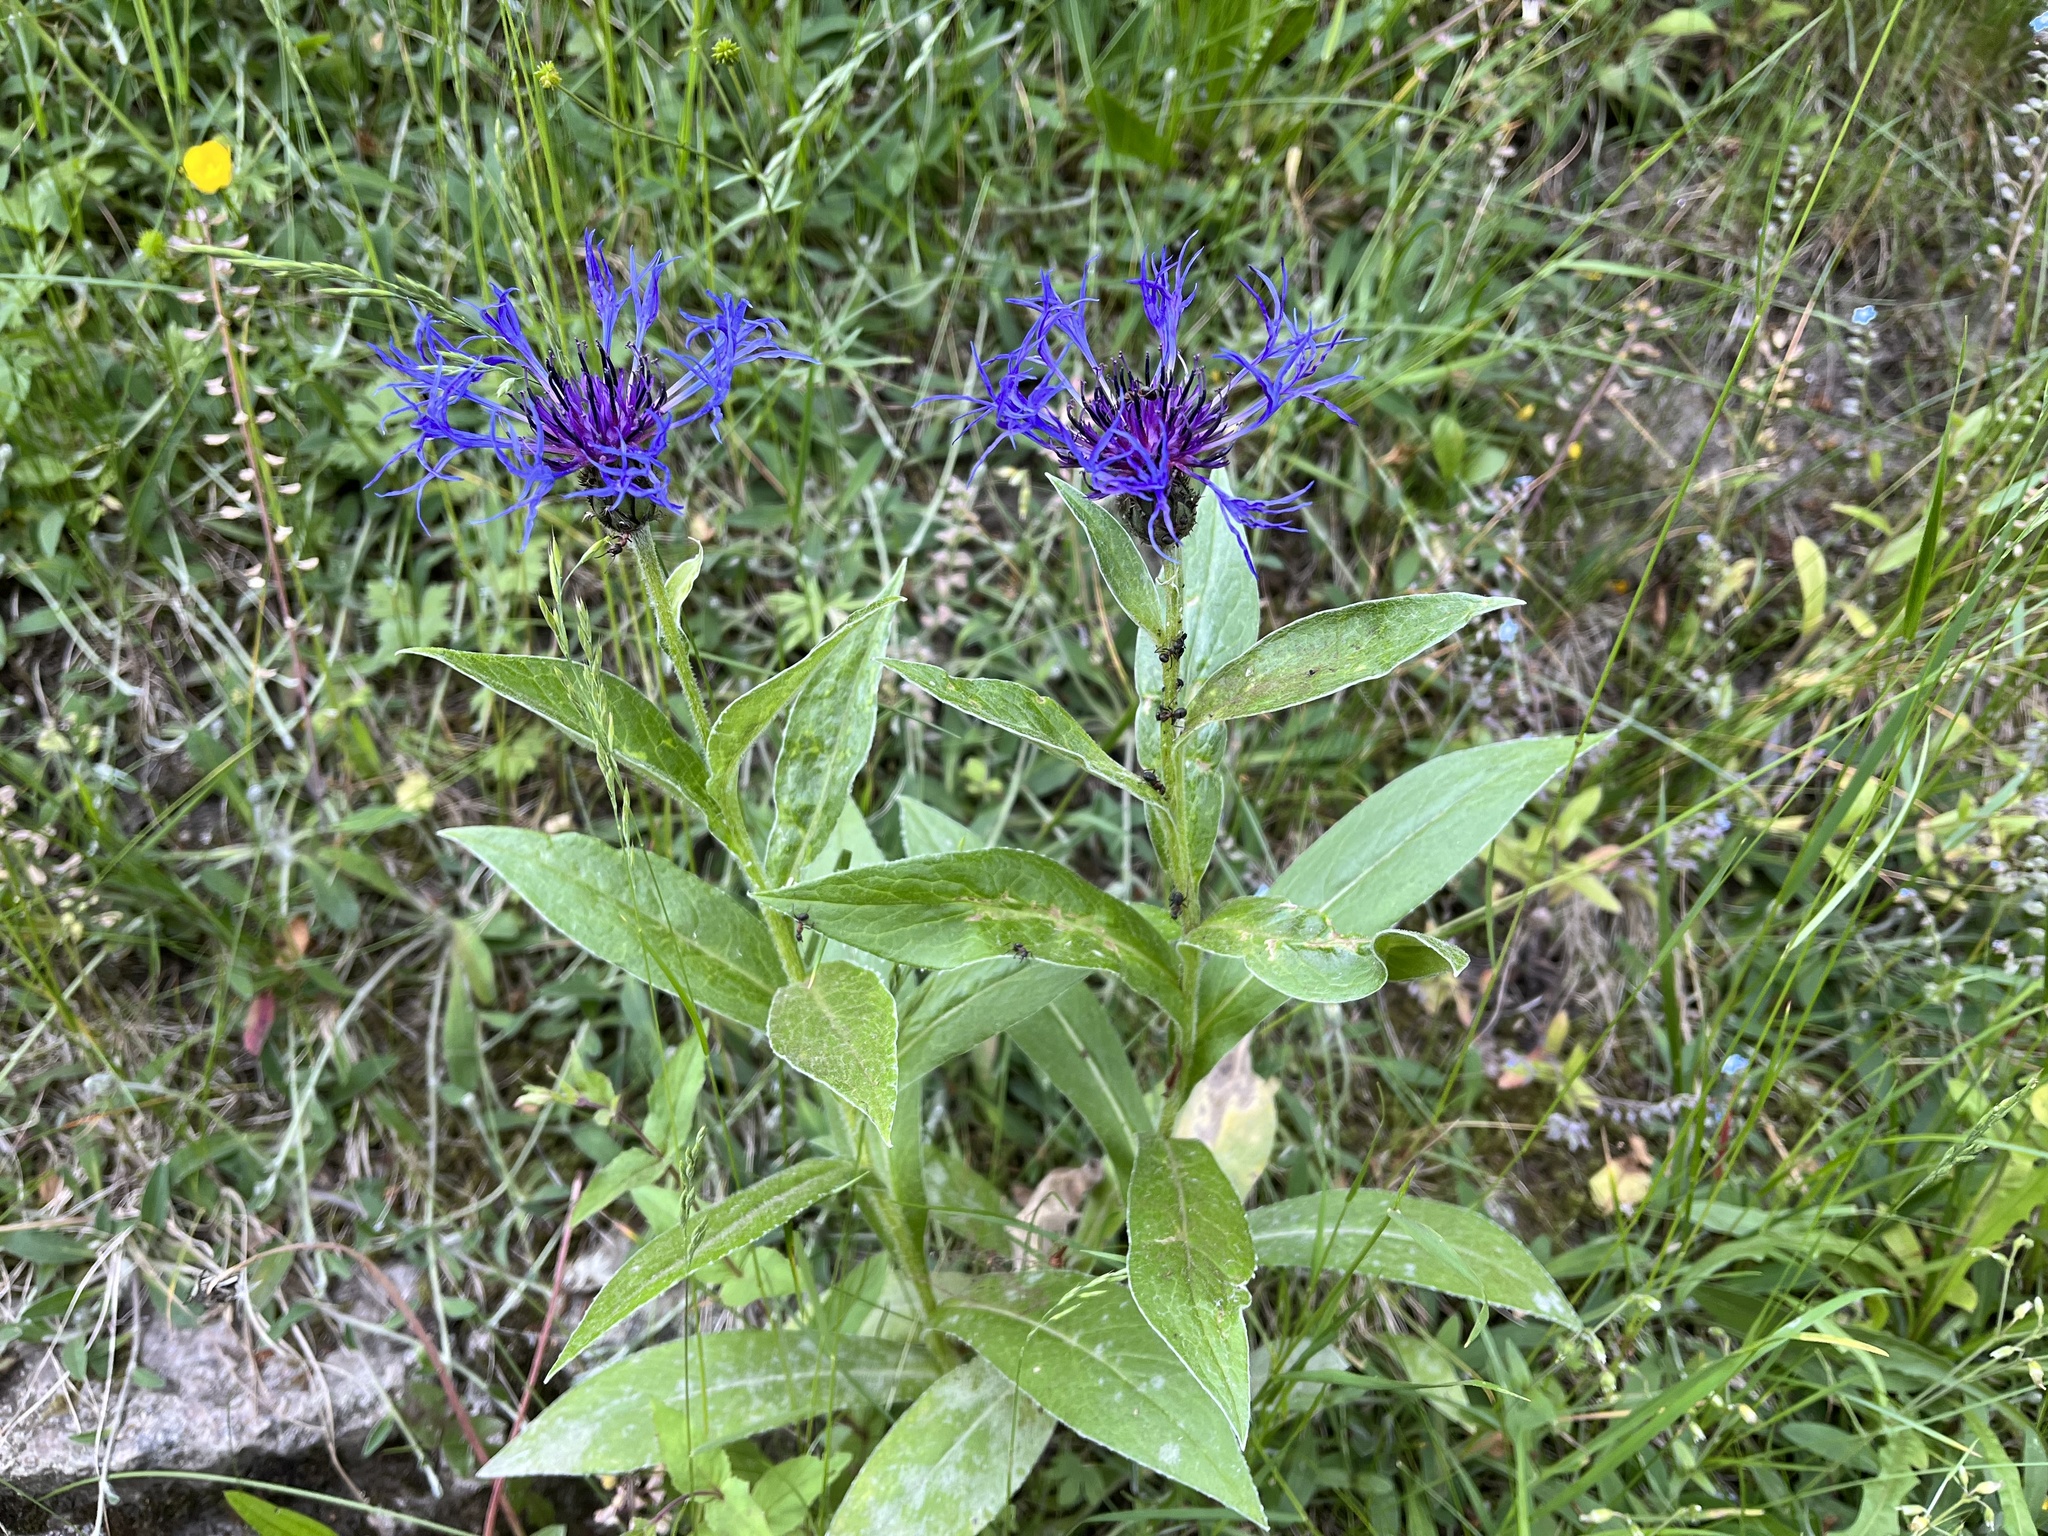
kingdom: Plantae
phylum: Tracheophyta
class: Magnoliopsida
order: Asterales
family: Asteraceae
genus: Centaurea
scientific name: Centaurea montana
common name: Perennial cornflower
